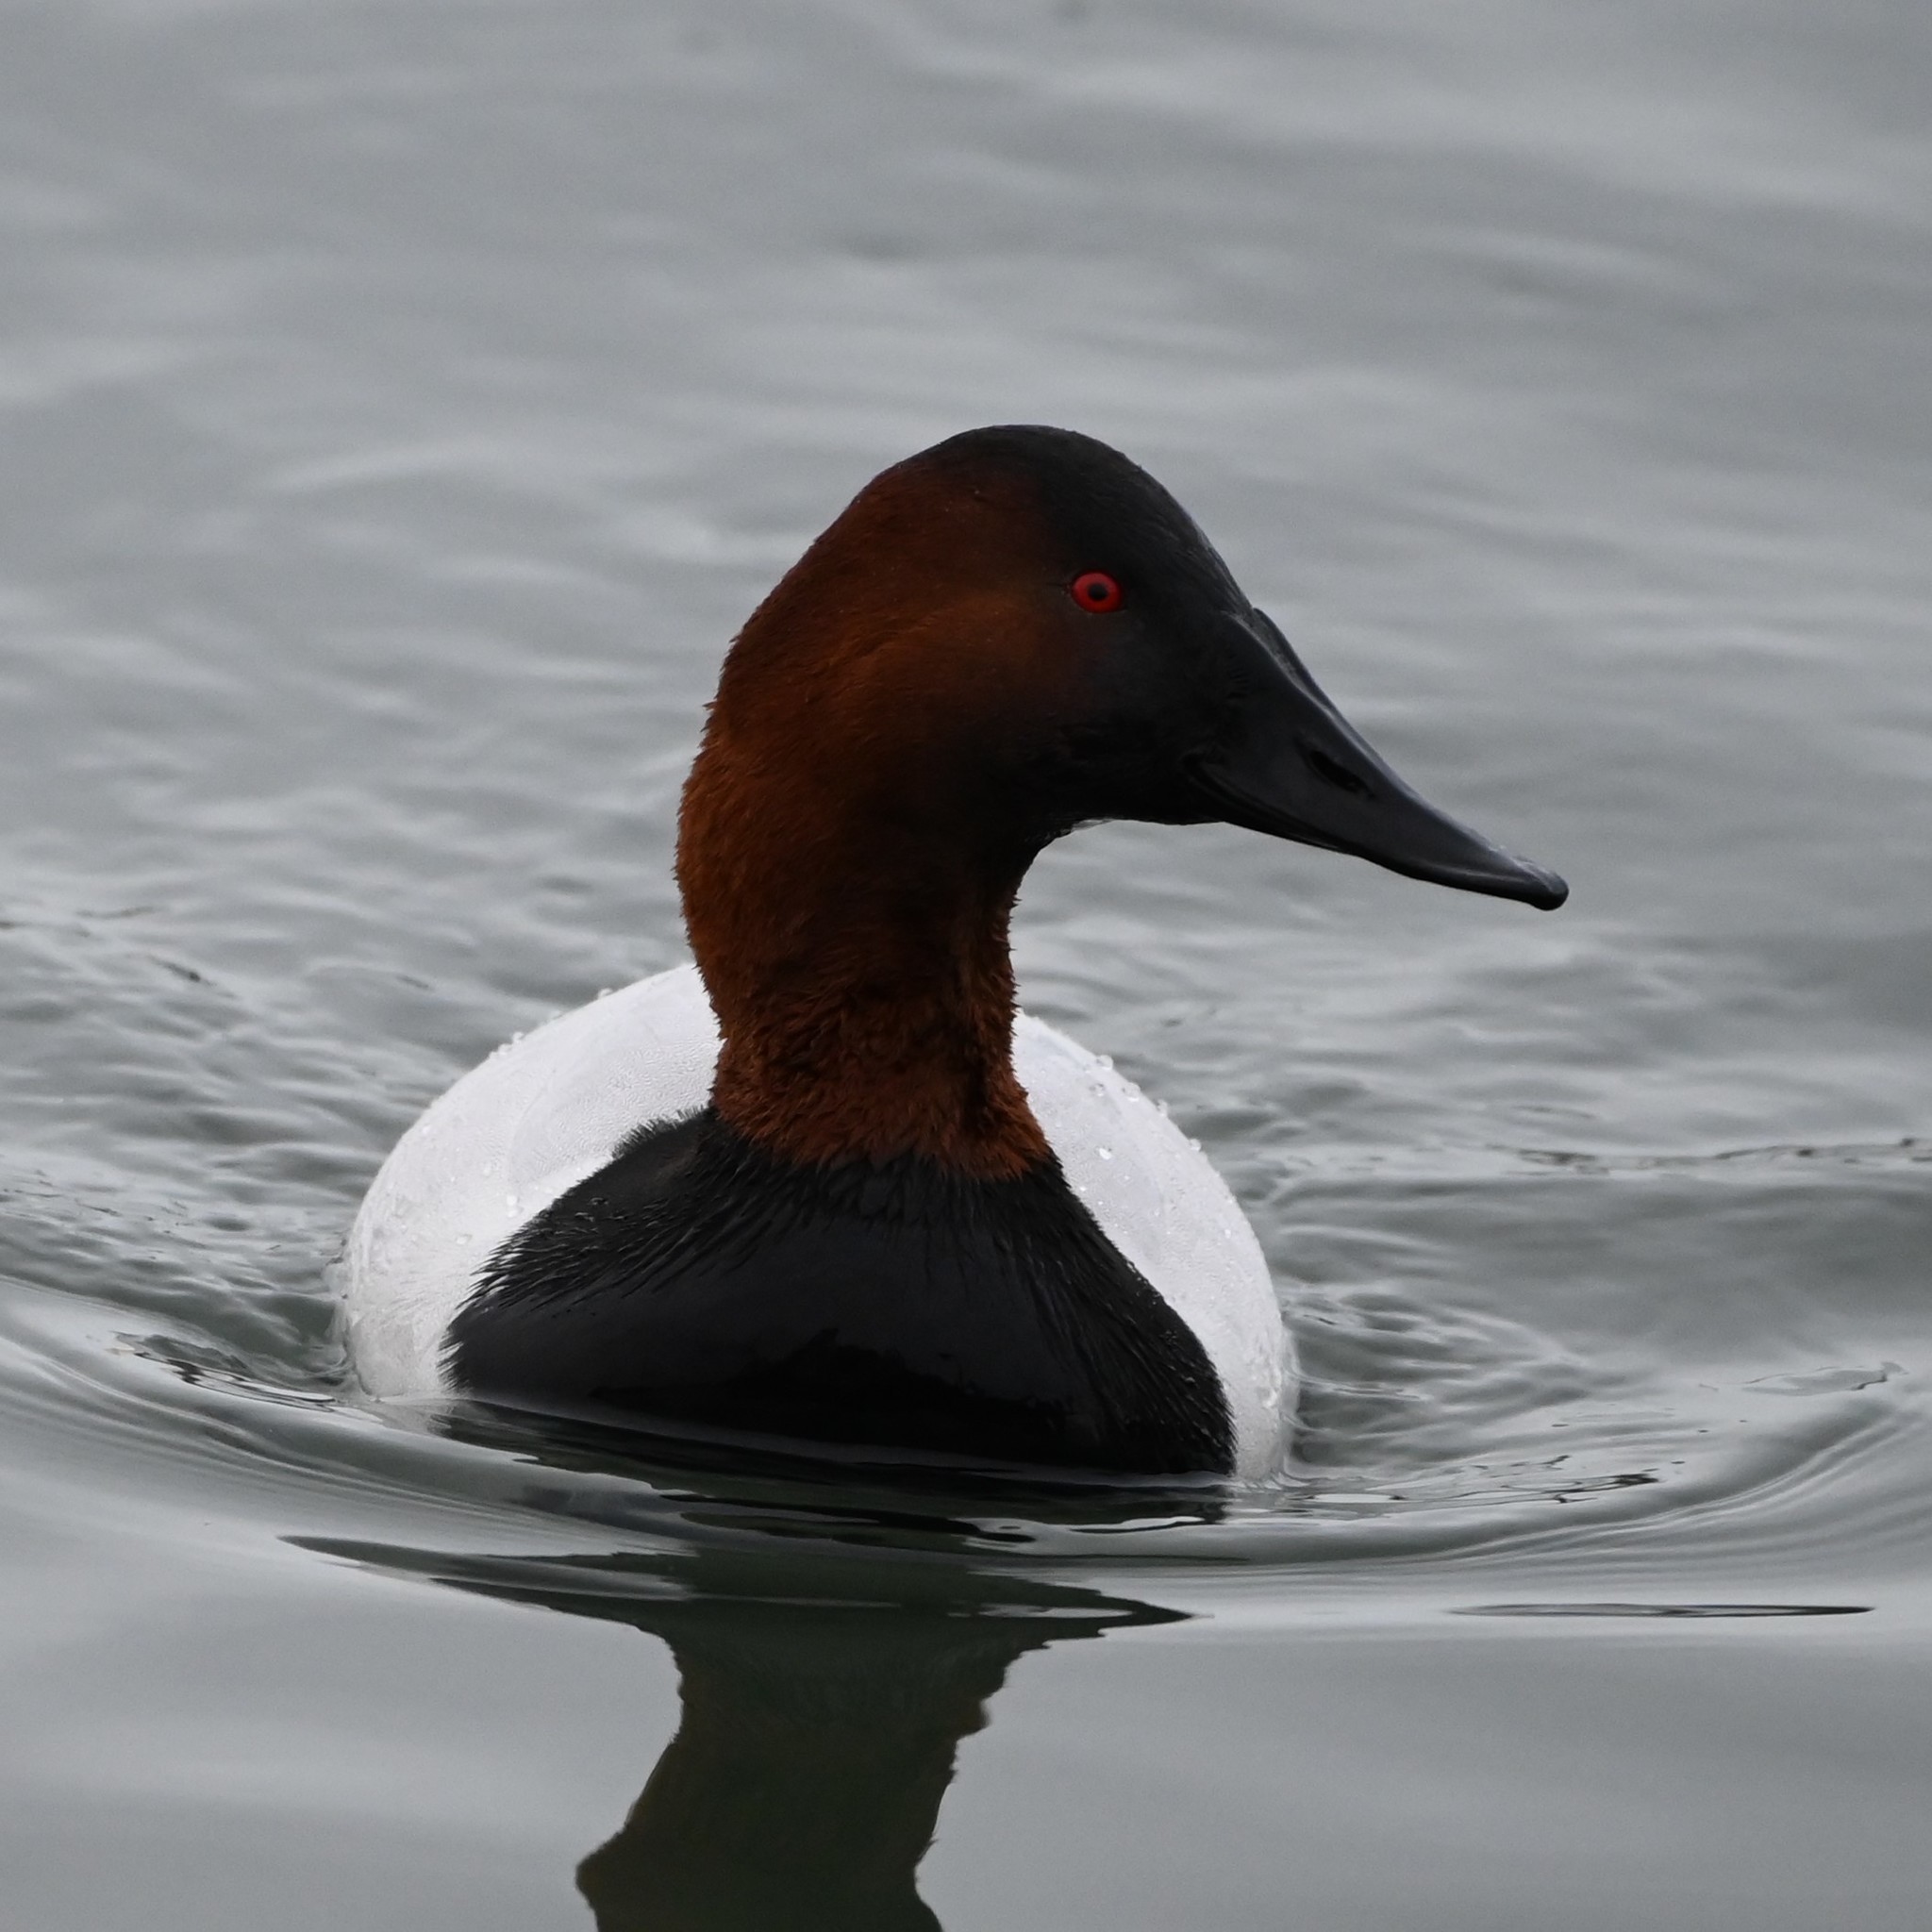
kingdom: Animalia
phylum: Chordata
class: Aves
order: Anseriformes
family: Anatidae
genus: Aythya
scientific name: Aythya valisineria
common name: Canvasback
